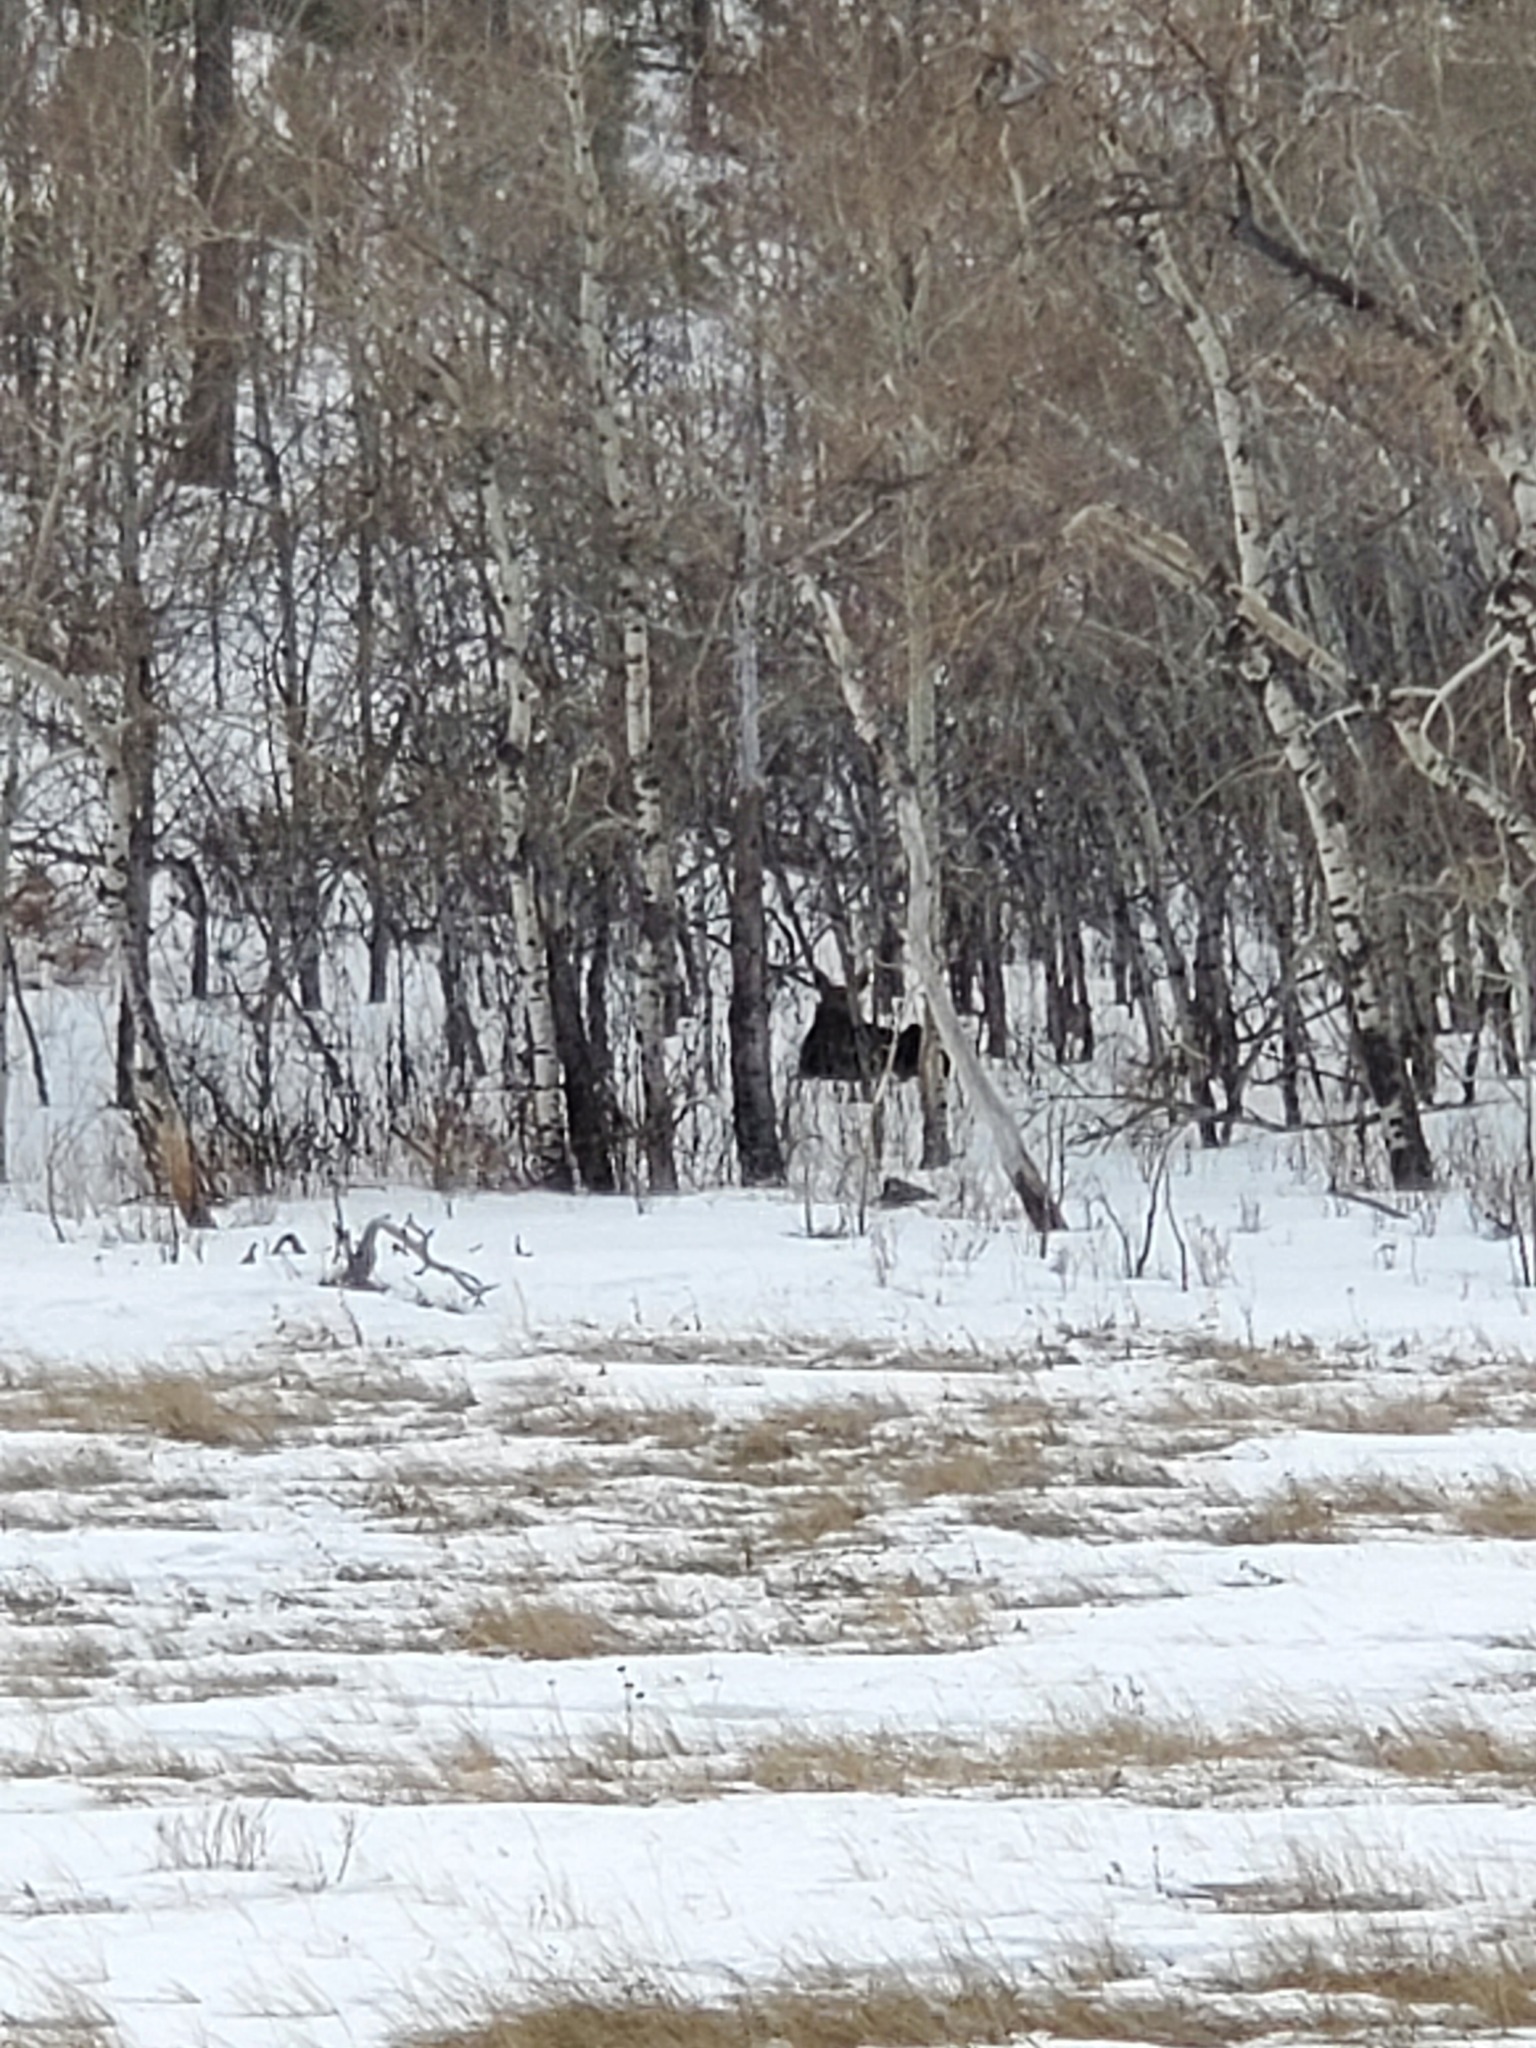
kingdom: Animalia
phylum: Chordata
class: Mammalia
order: Artiodactyla
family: Cervidae
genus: Alces
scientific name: Alces alces
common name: Moose
